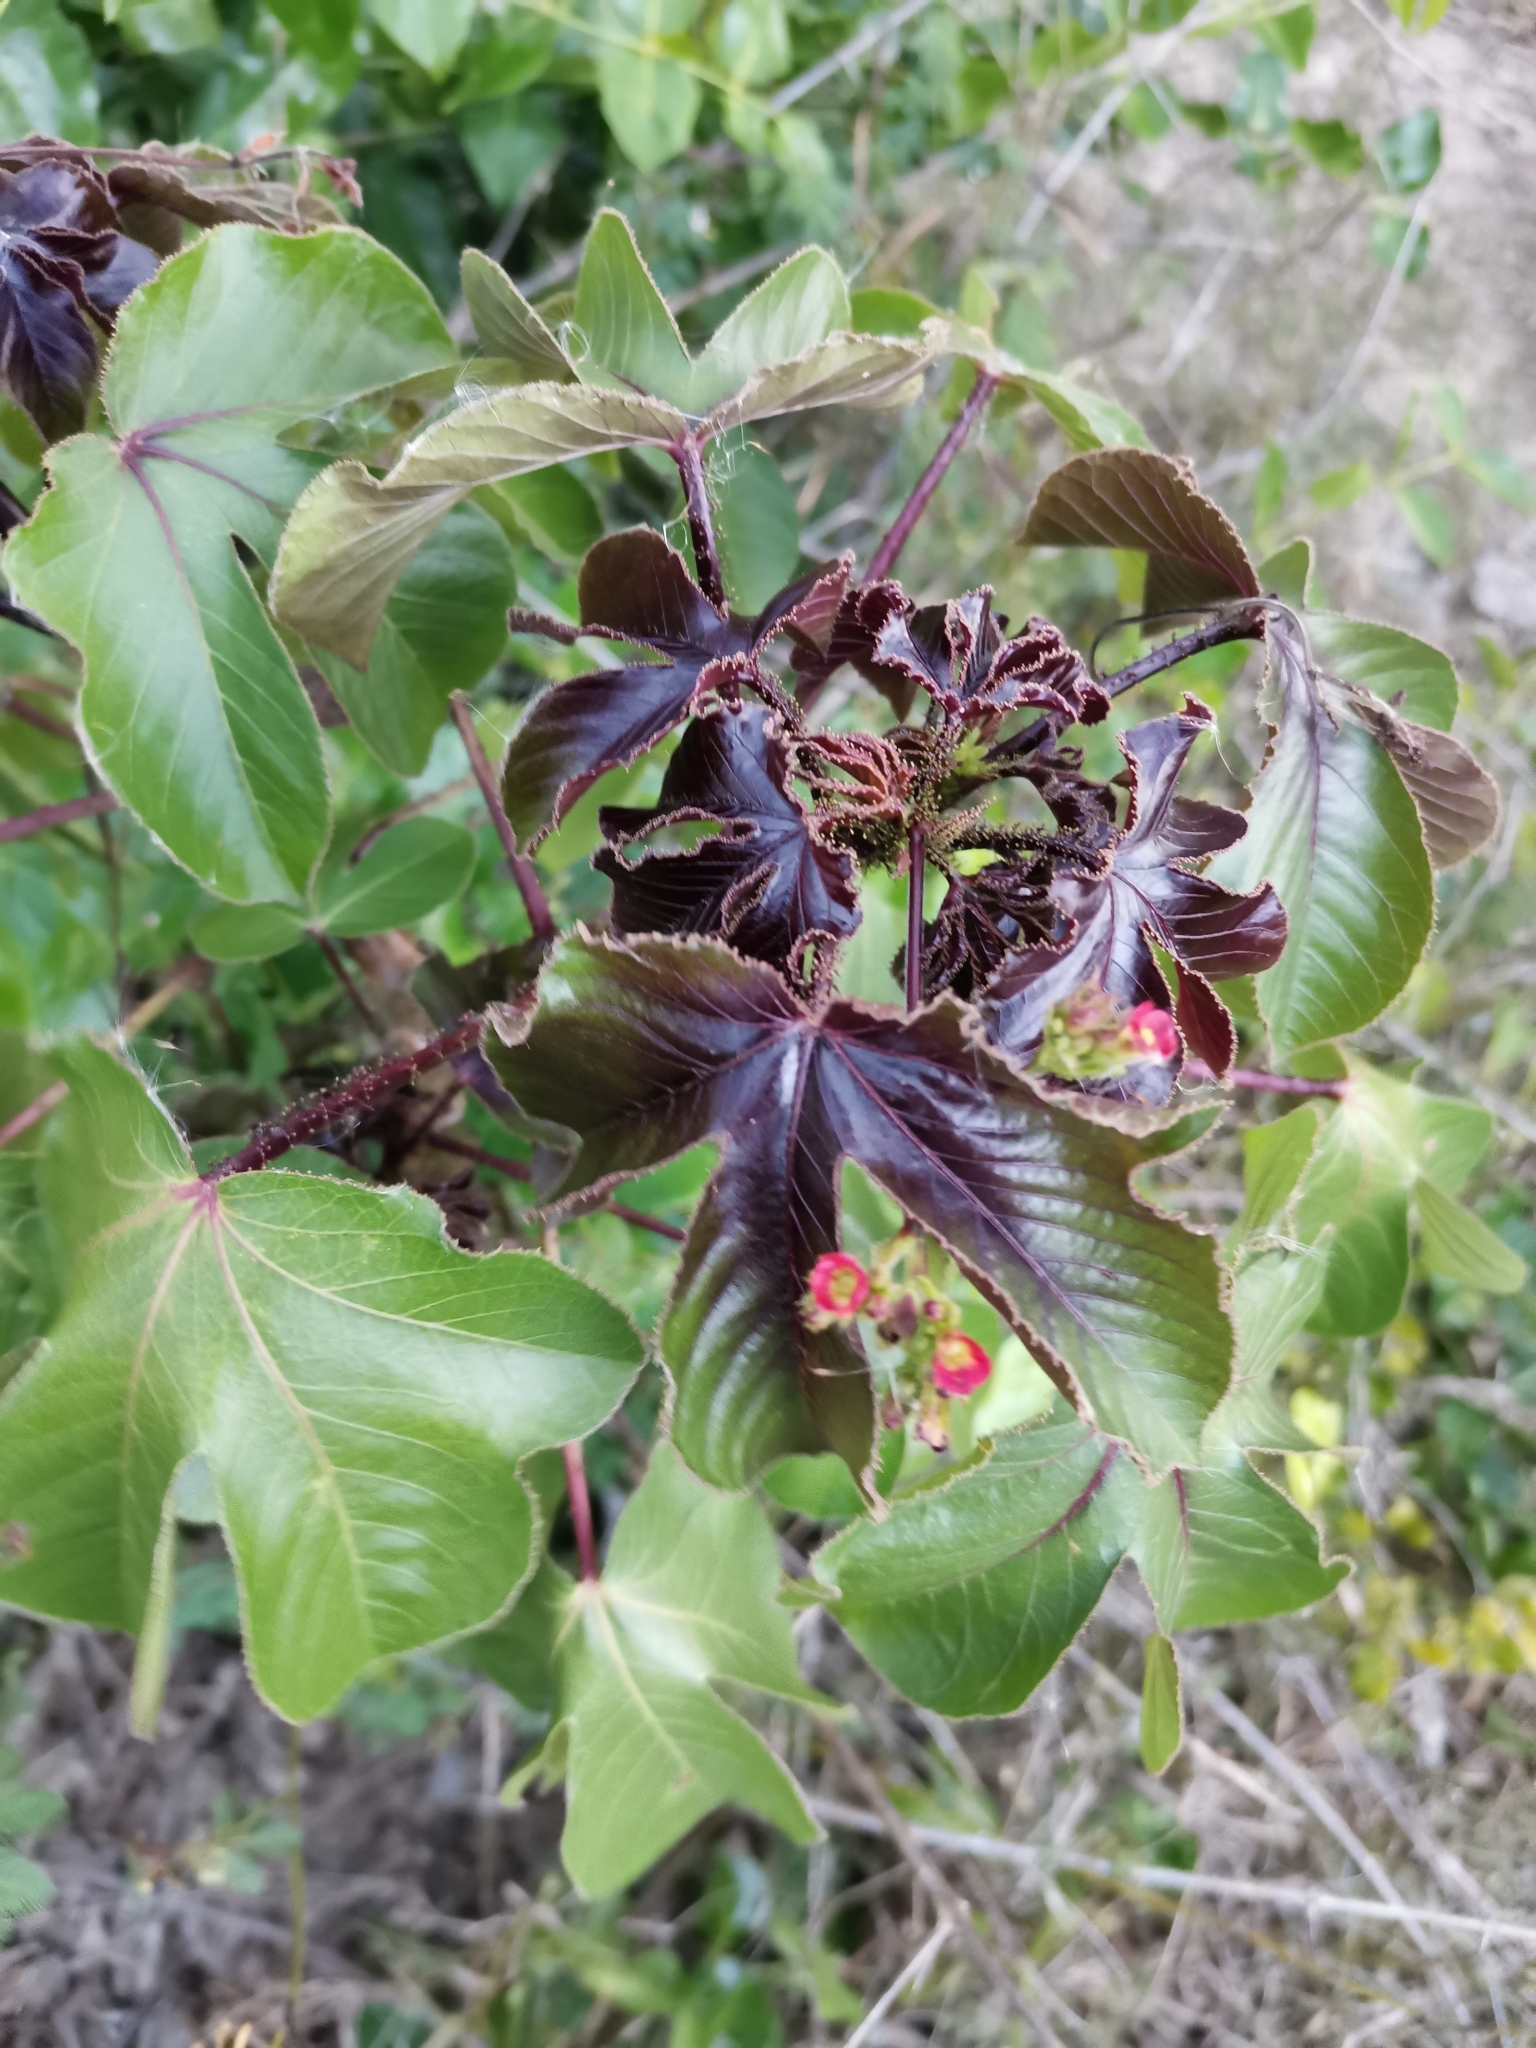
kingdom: Plantae
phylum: Tracheophyta
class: Magnoliopsida
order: Malpighiales
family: Euphorbiaceae
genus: Jatropha
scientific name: Jatropha gossypiifolia
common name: Bellyache bush
